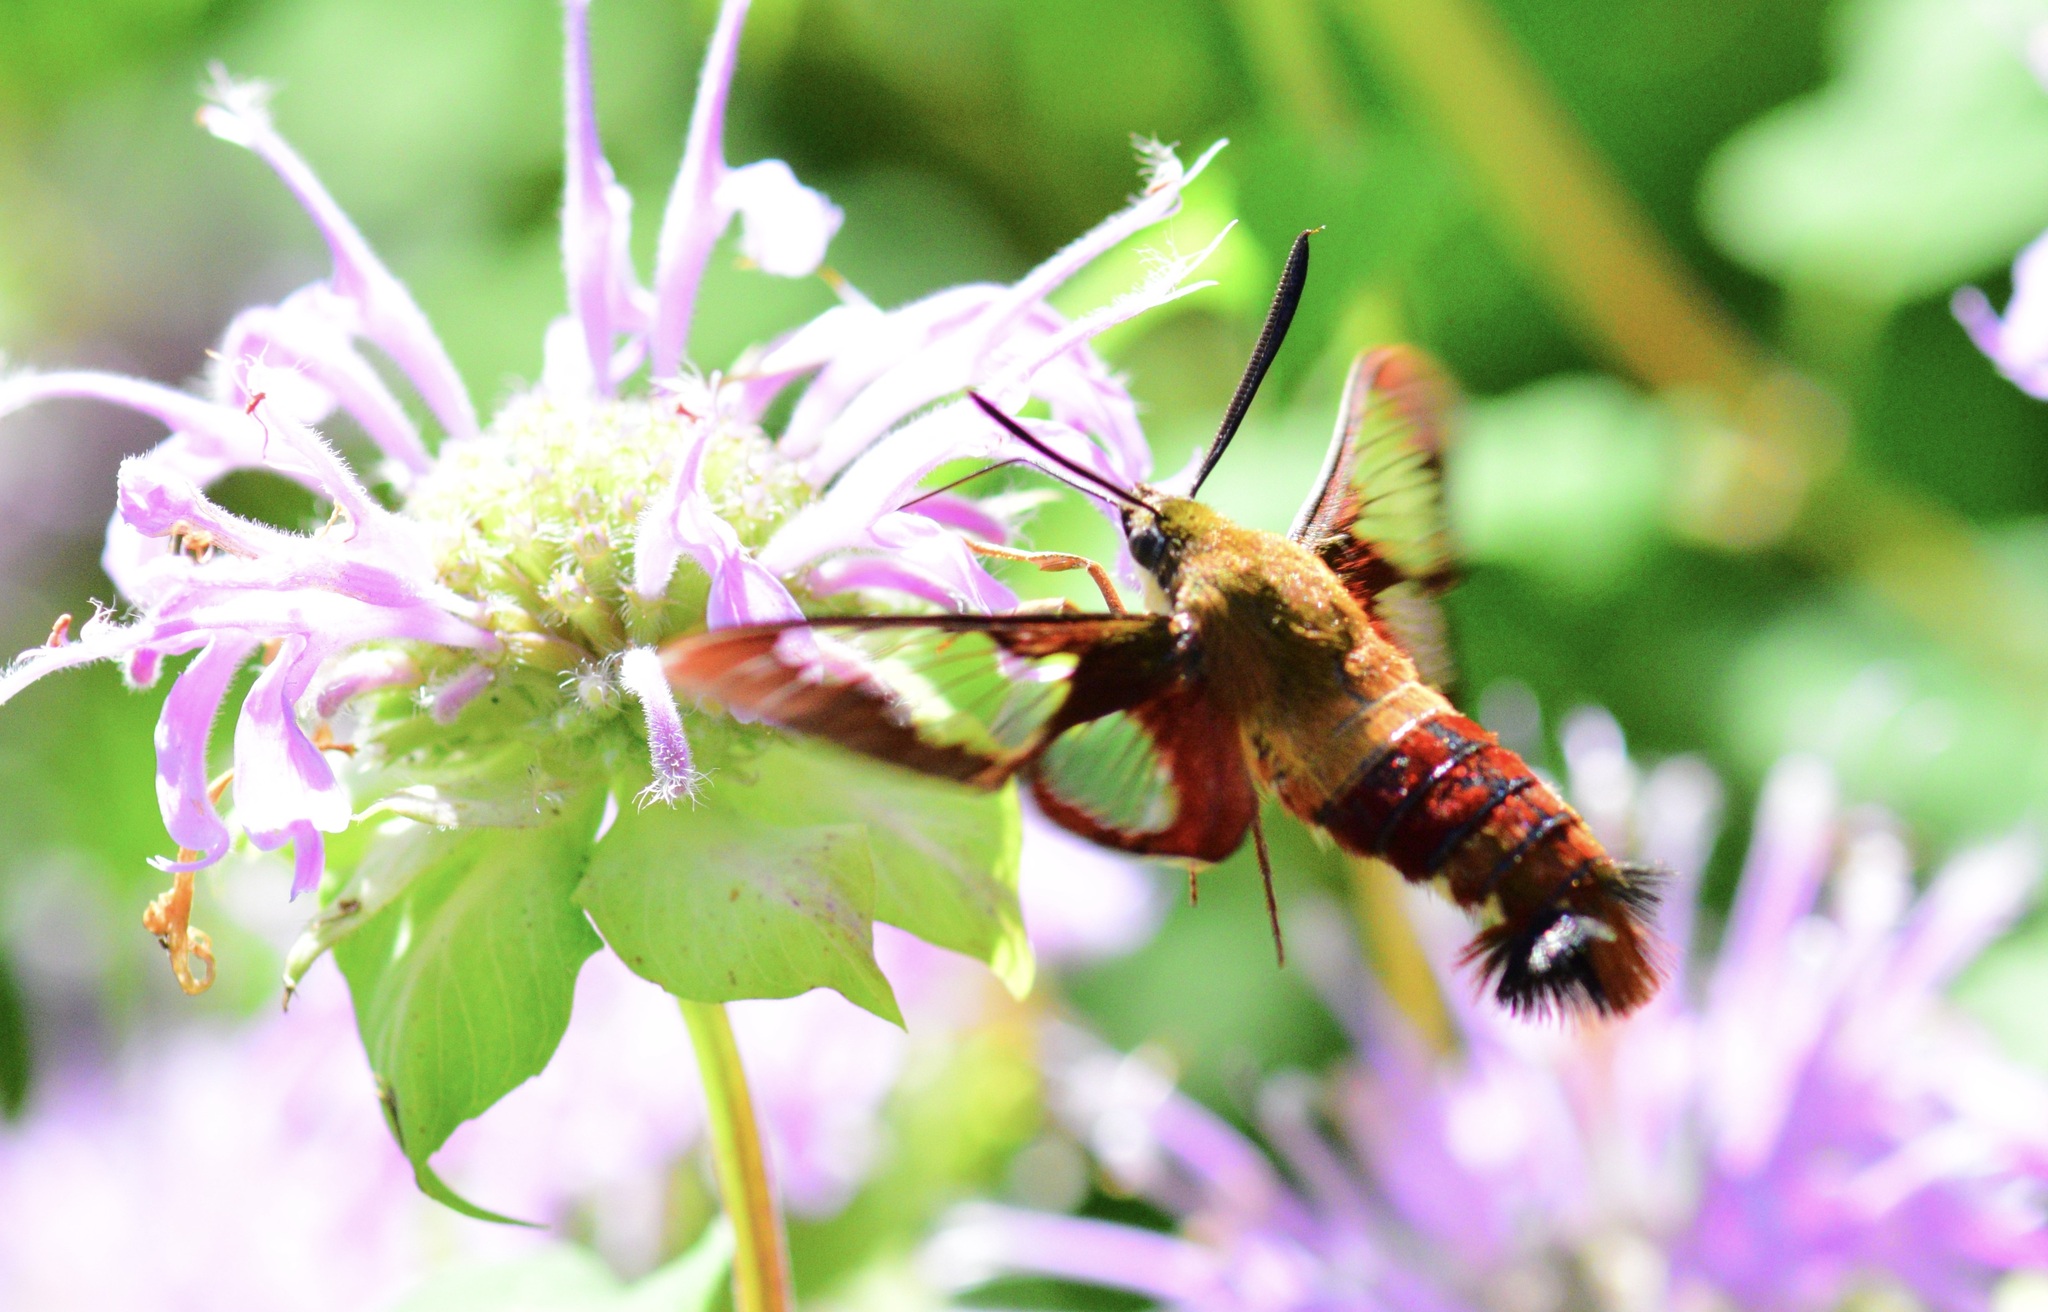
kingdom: Animalia
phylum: Arthropoda
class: Insecta
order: Lepidoptera
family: Sphingidae
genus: Hemaris
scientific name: Hemaris thysbe
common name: Common clear-wing
